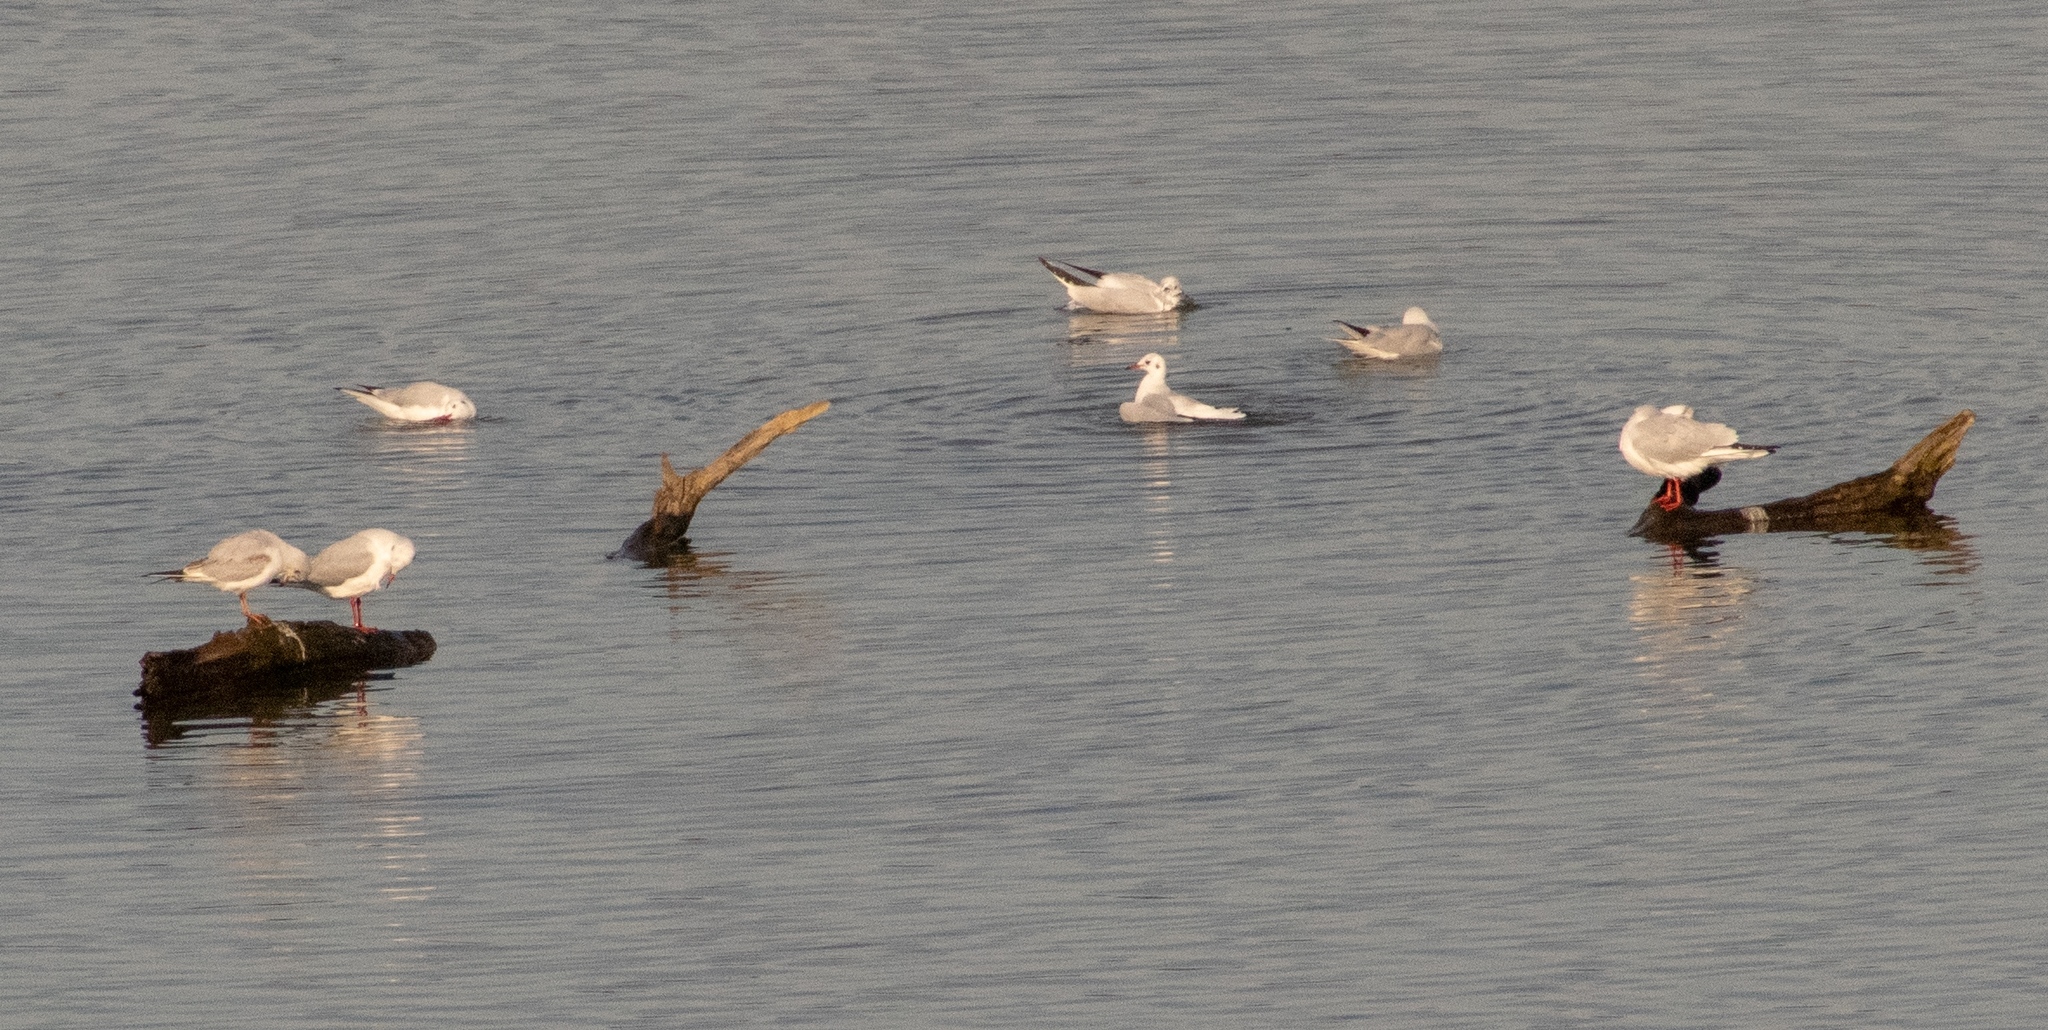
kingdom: Animalia
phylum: Chordata
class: Aves
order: Charadriiformes
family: Laridae
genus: Chroicocephalus
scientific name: Chroicocephalus ridibundus
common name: Black-headed gull
